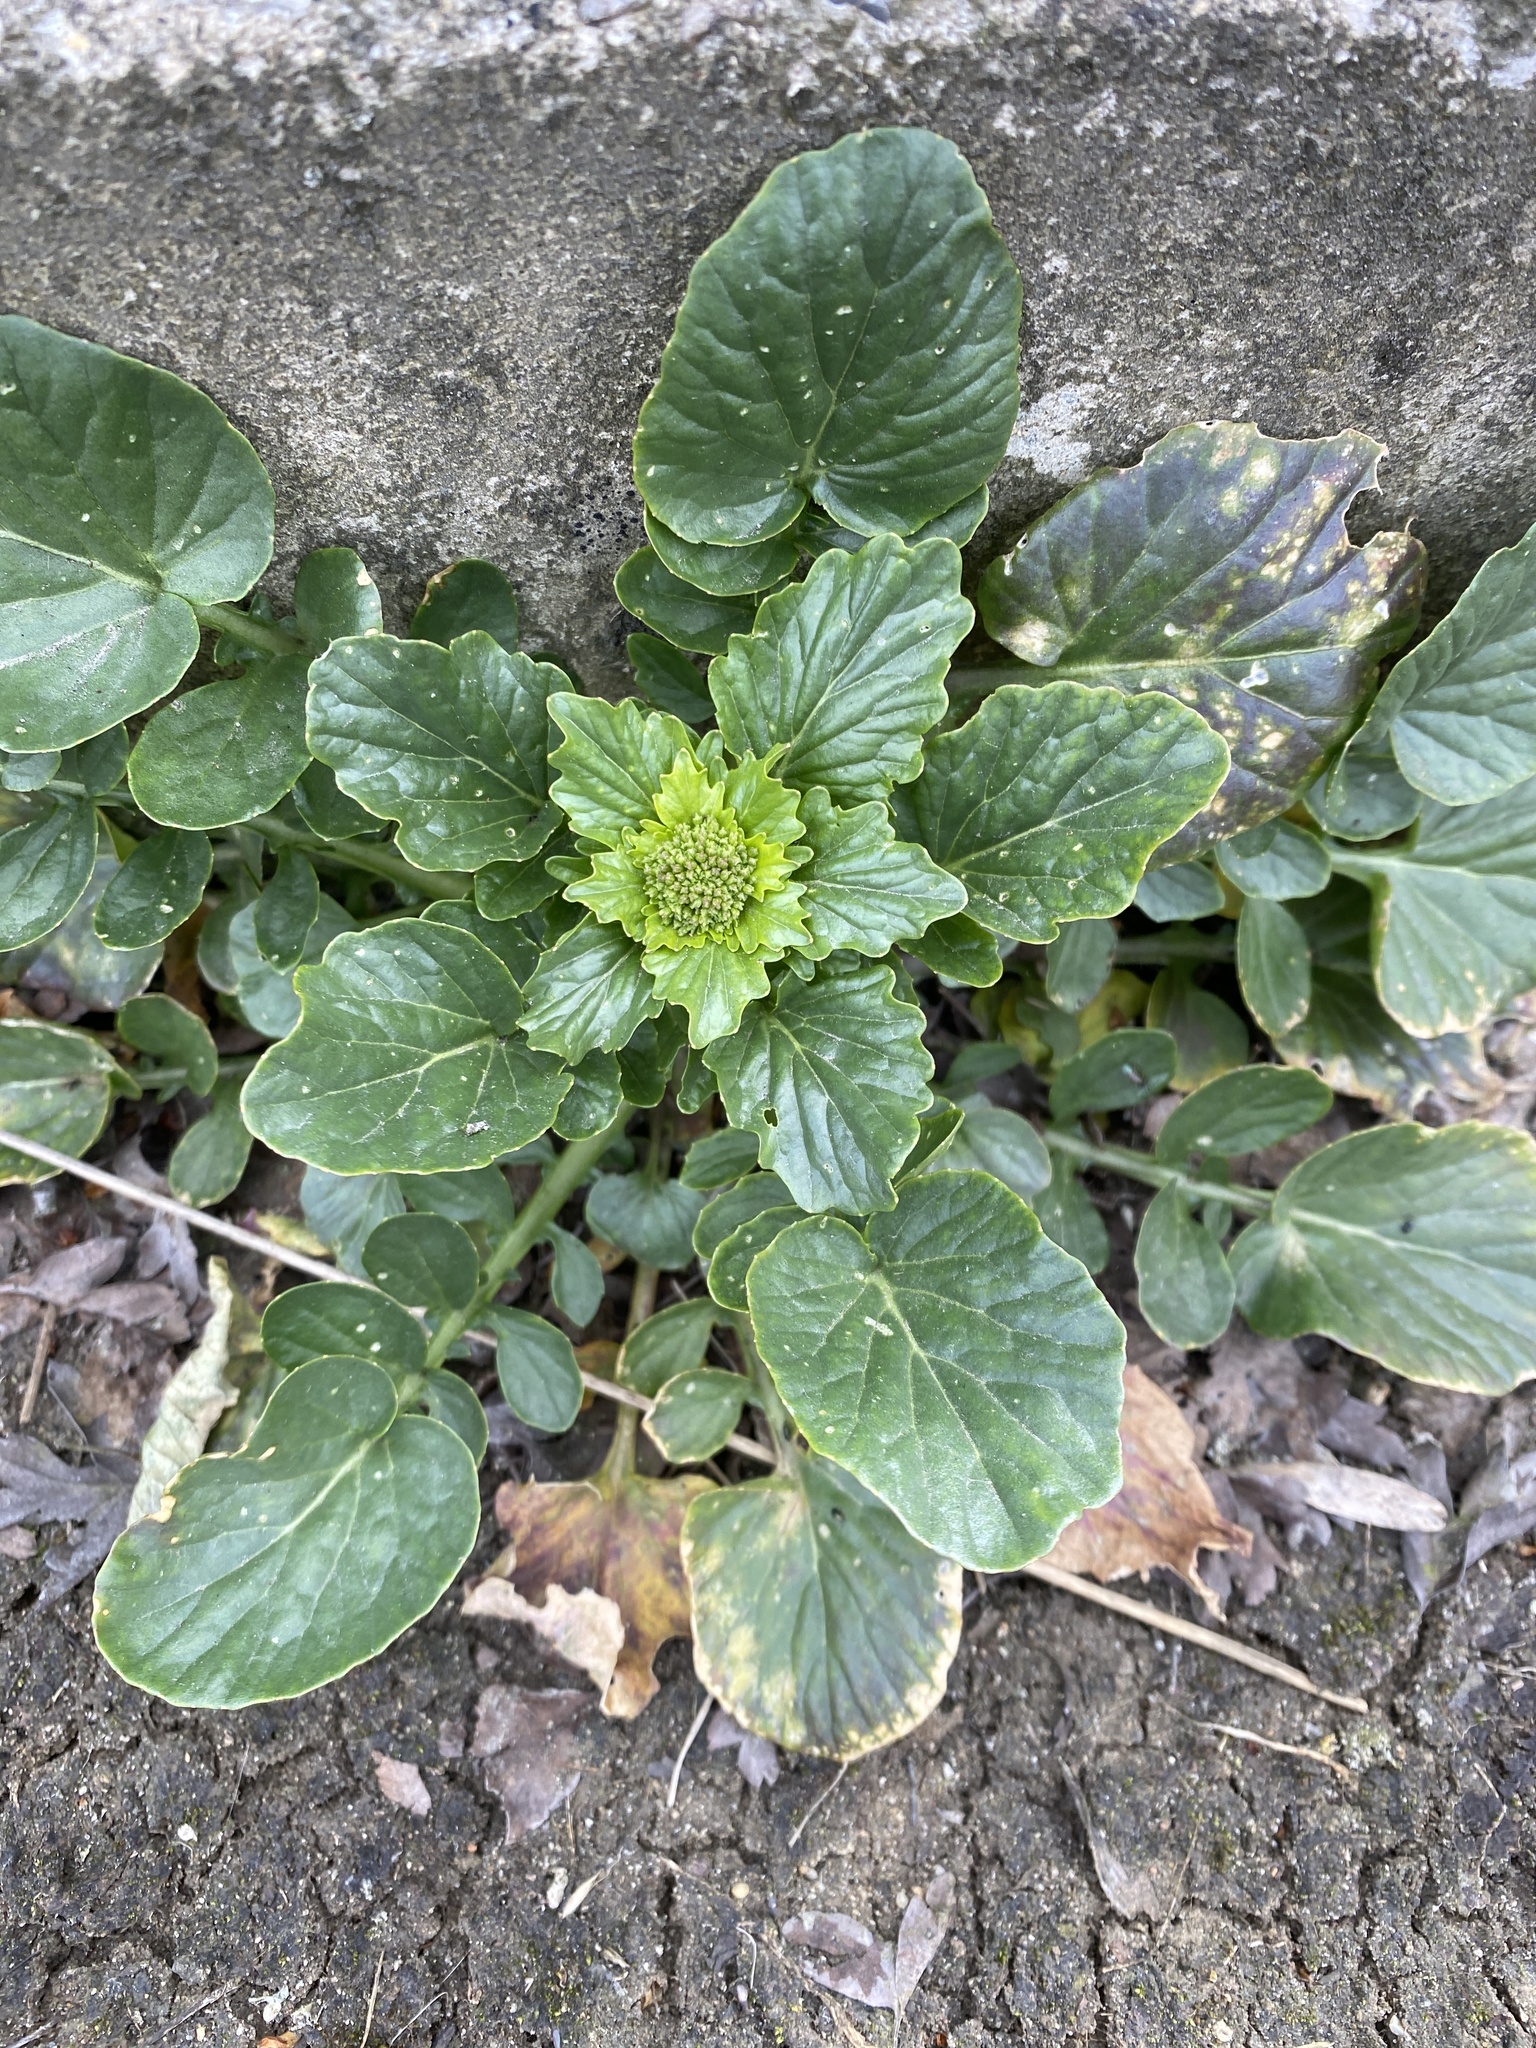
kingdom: Plantae
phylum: Tracheophyta
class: Magnoliopsida
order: Brassicales
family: Brassicaceae
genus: Barbarea
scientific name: Barbarea vulgaris
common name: Cressy-greens
